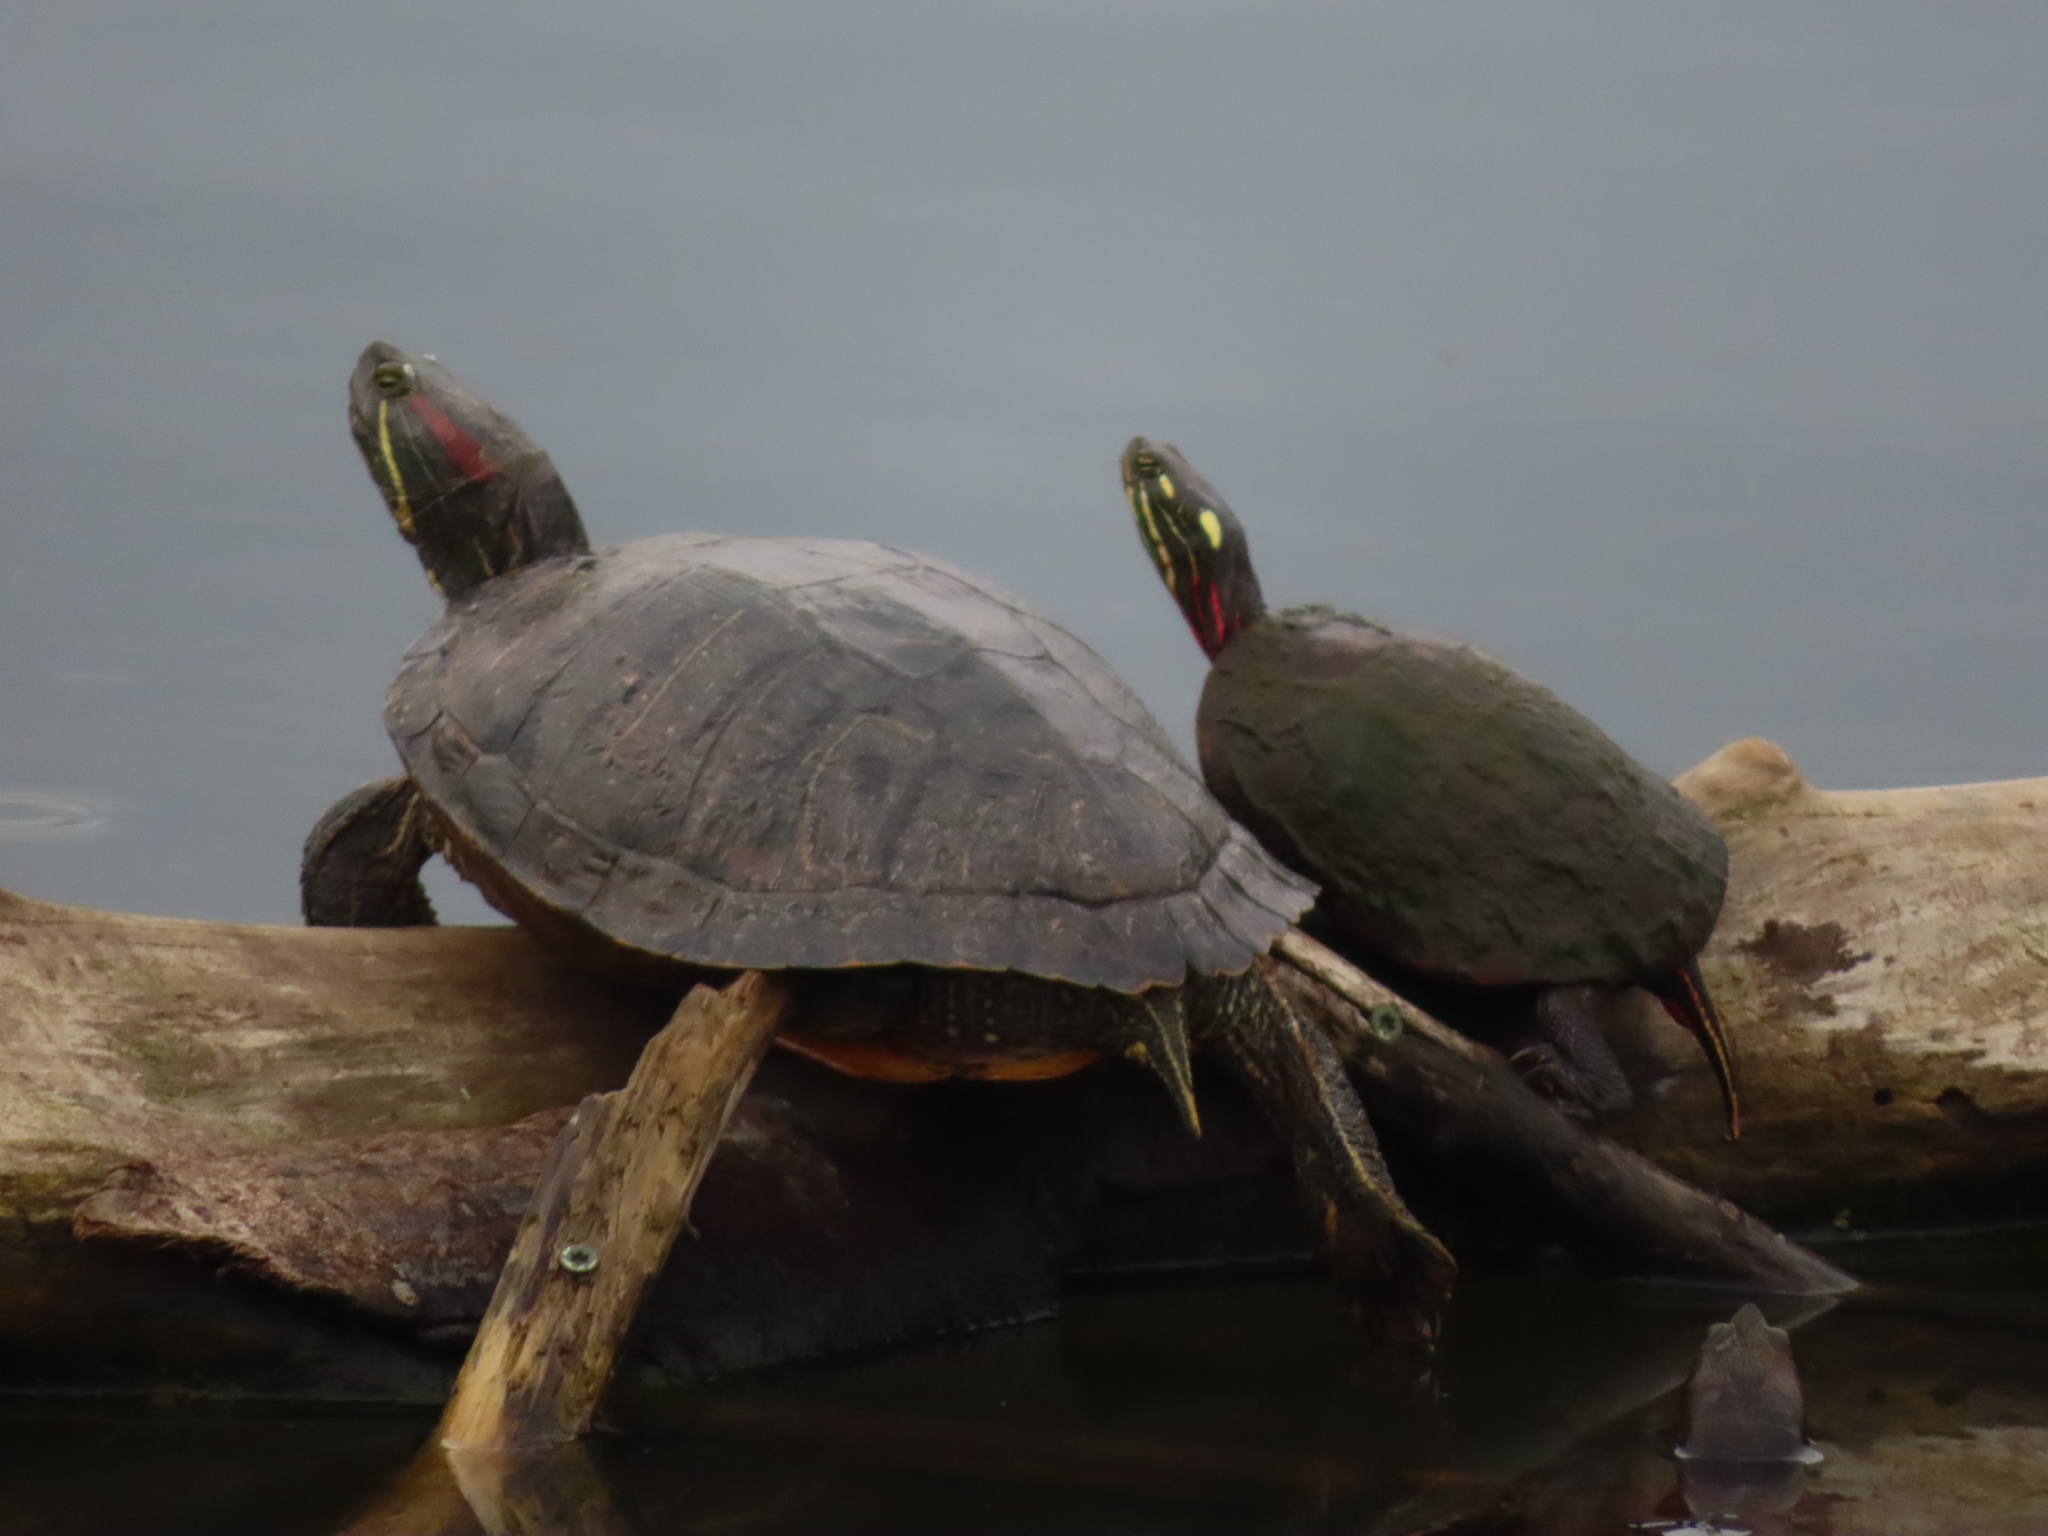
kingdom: Animalia
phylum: Chordata
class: Testudines
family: Emydidae
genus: Trachemys
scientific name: Trachemys scripta
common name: Slider
